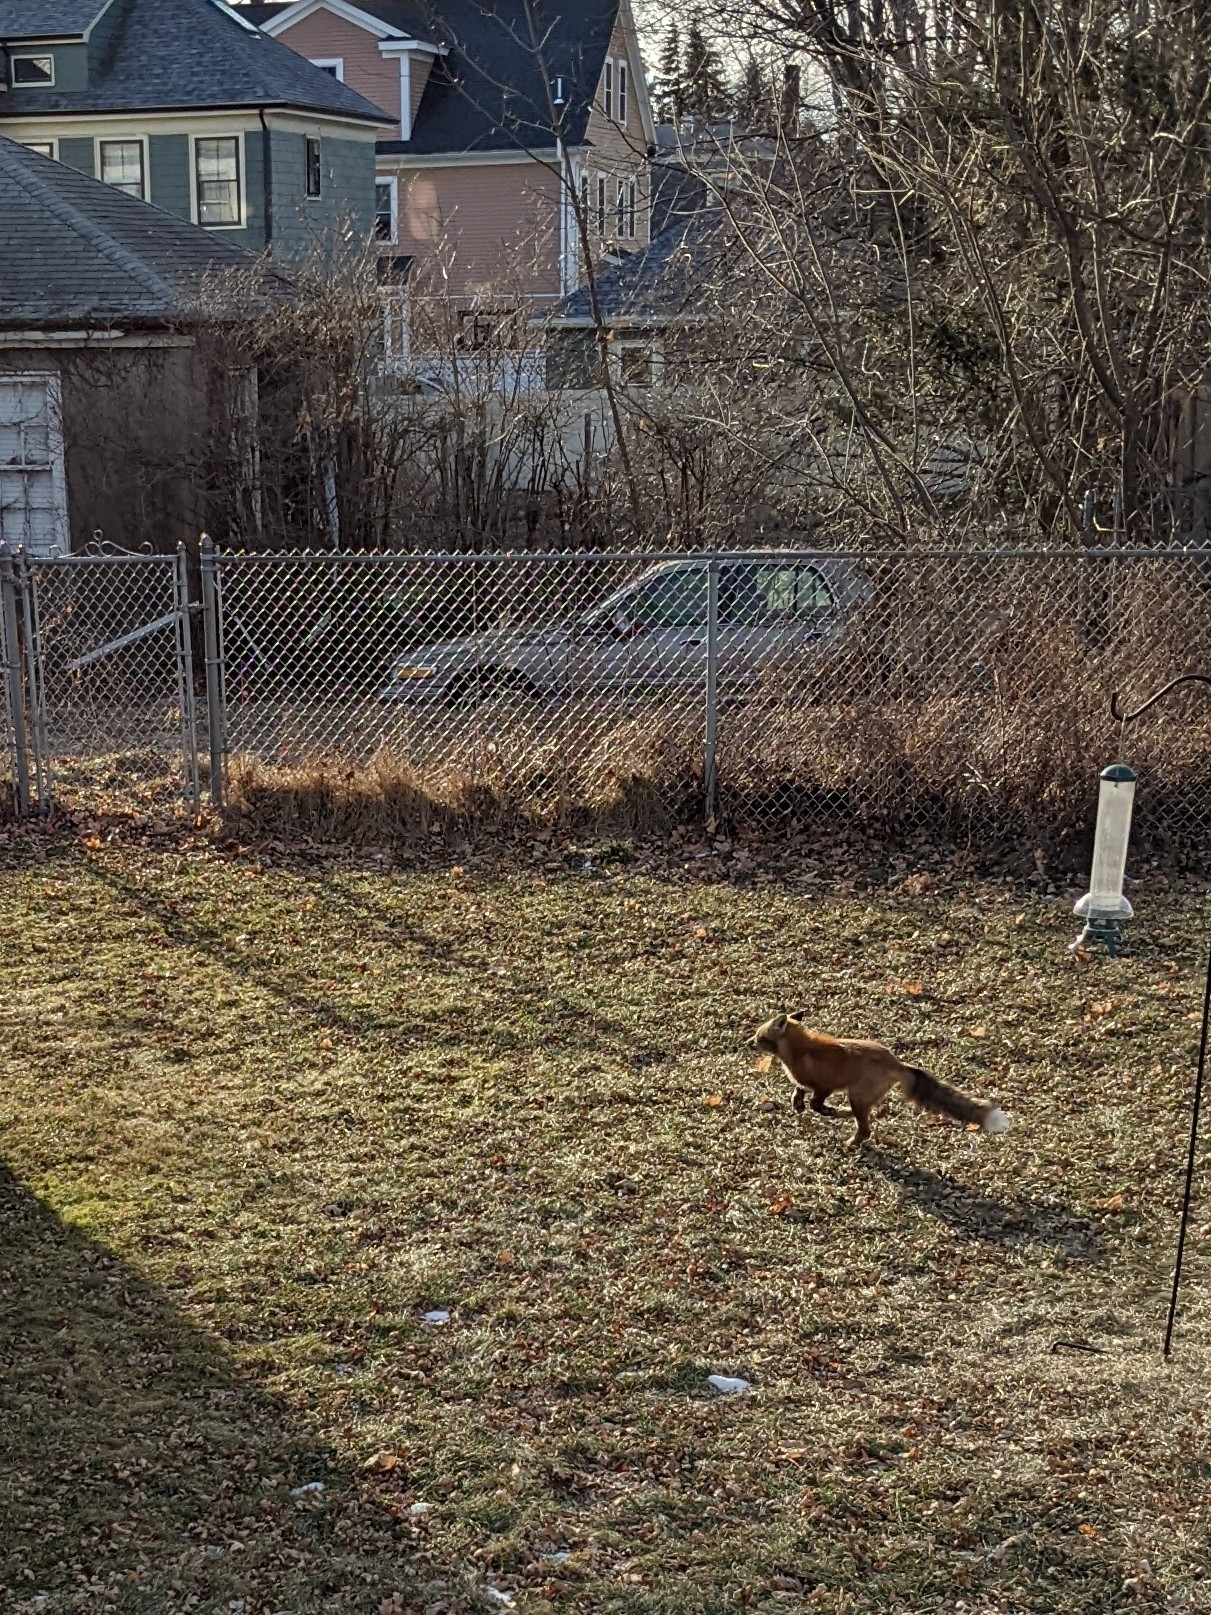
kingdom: Animalia
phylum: Chordata
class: Mammalia
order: Carnivora
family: Canidae
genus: Vulpes
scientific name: Vulpes vulpes
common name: Red fox
